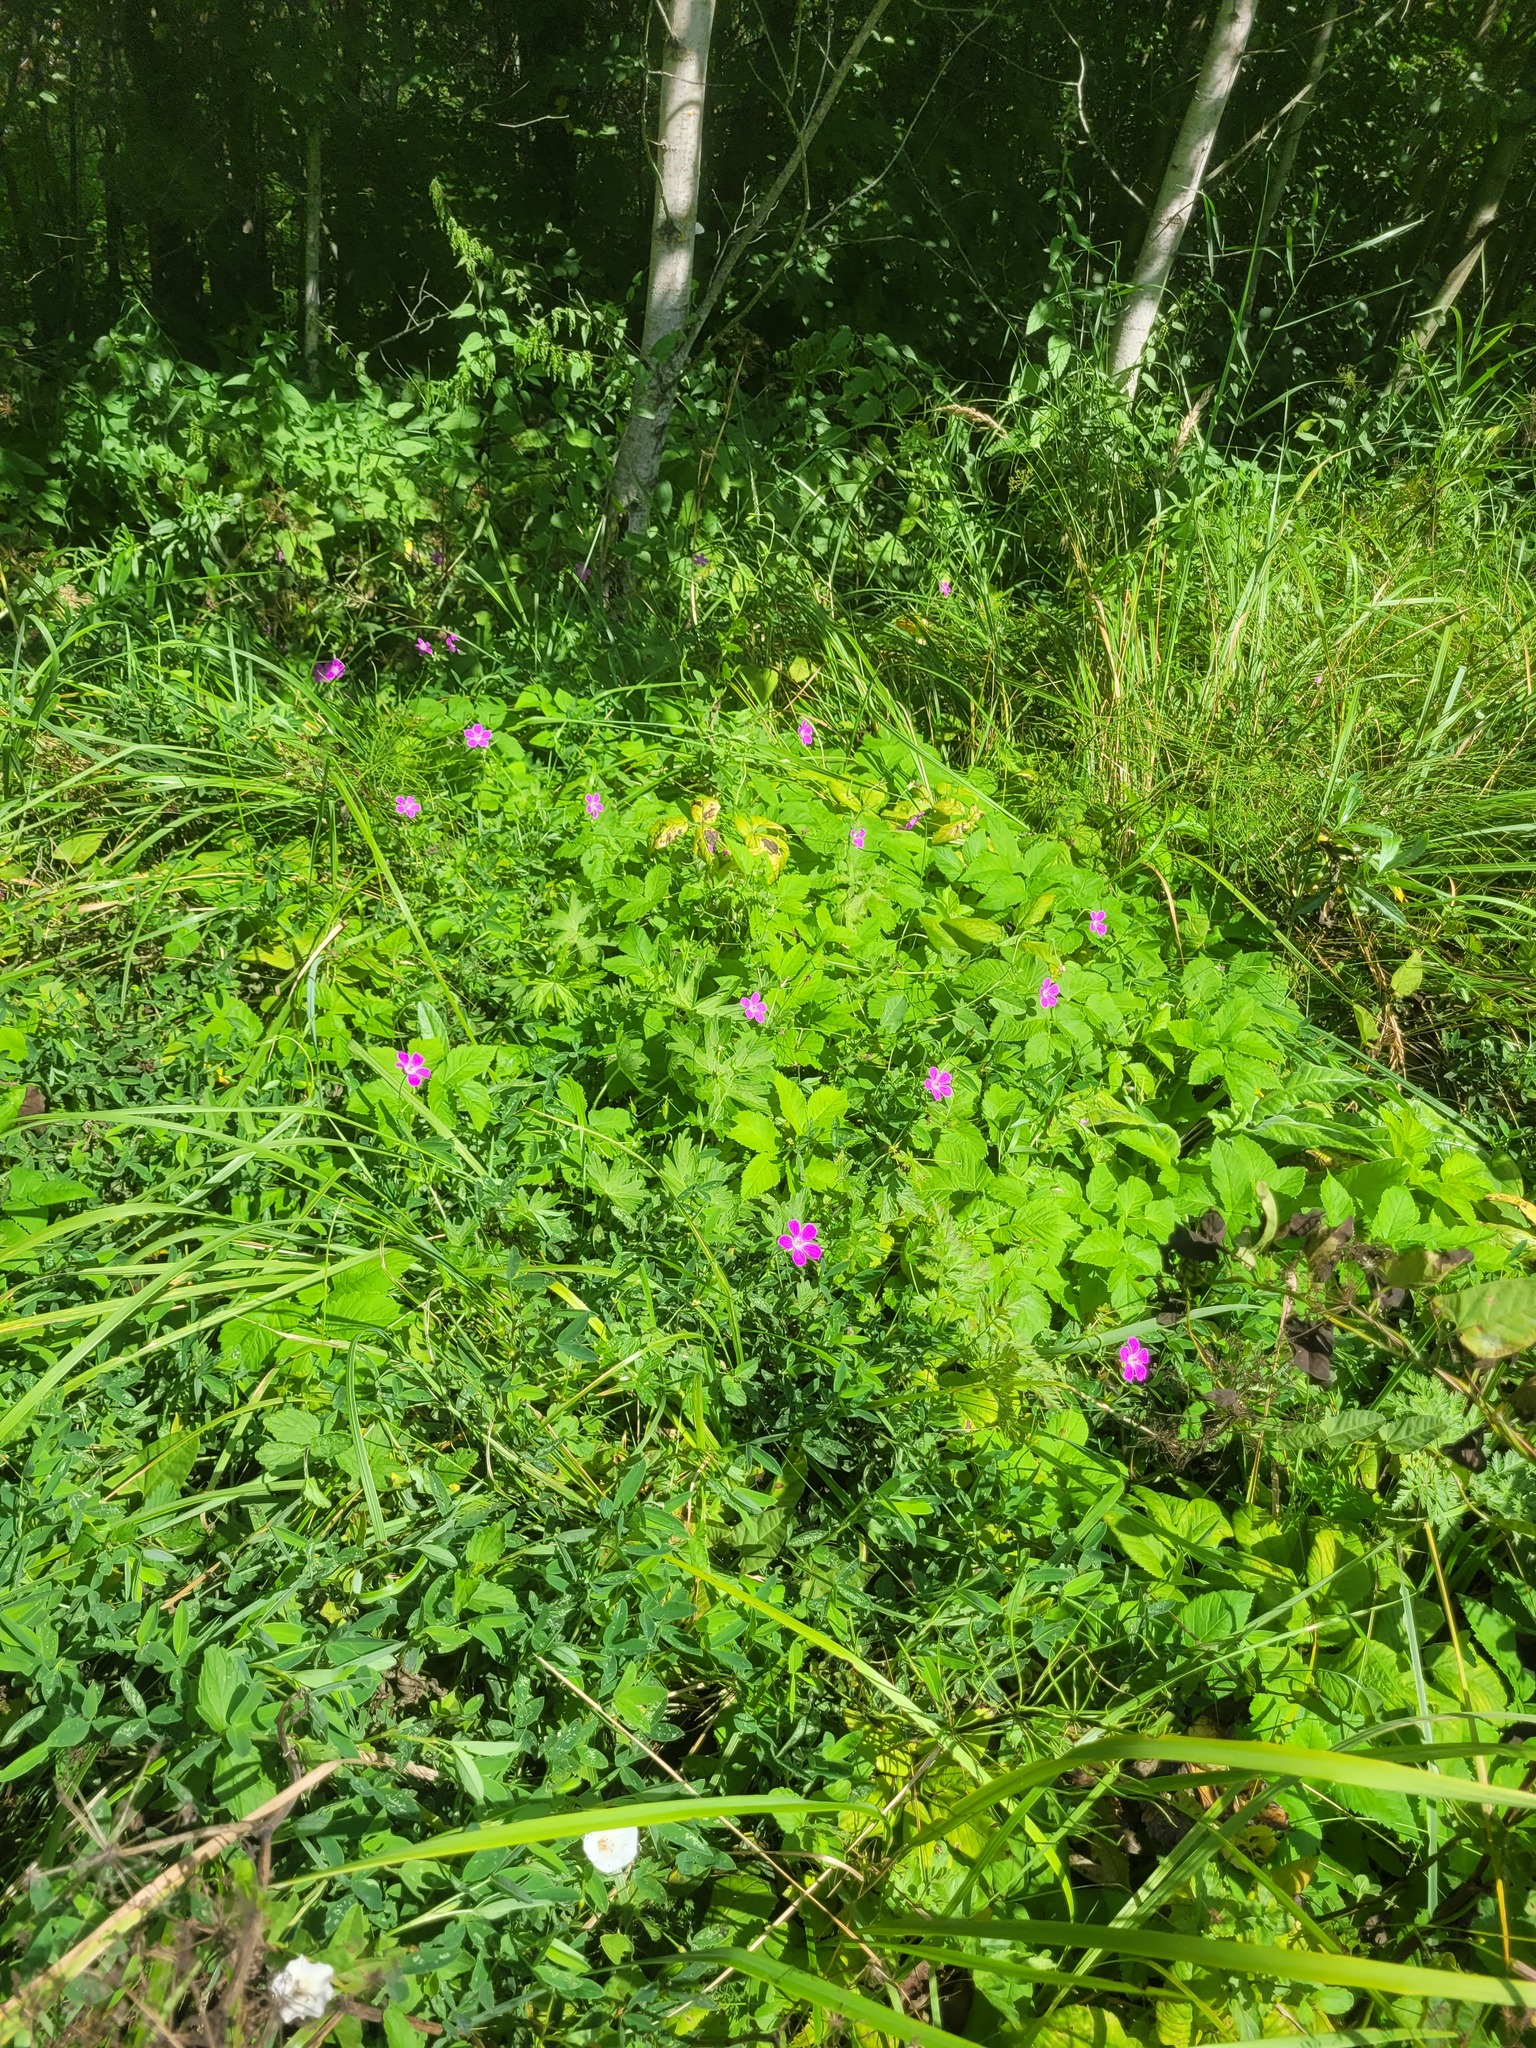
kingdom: Plantae
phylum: Tracheophyta
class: Magnoliopsida
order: Geraniales
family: Geraniaceae
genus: Geranium
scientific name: Geranium palustre
